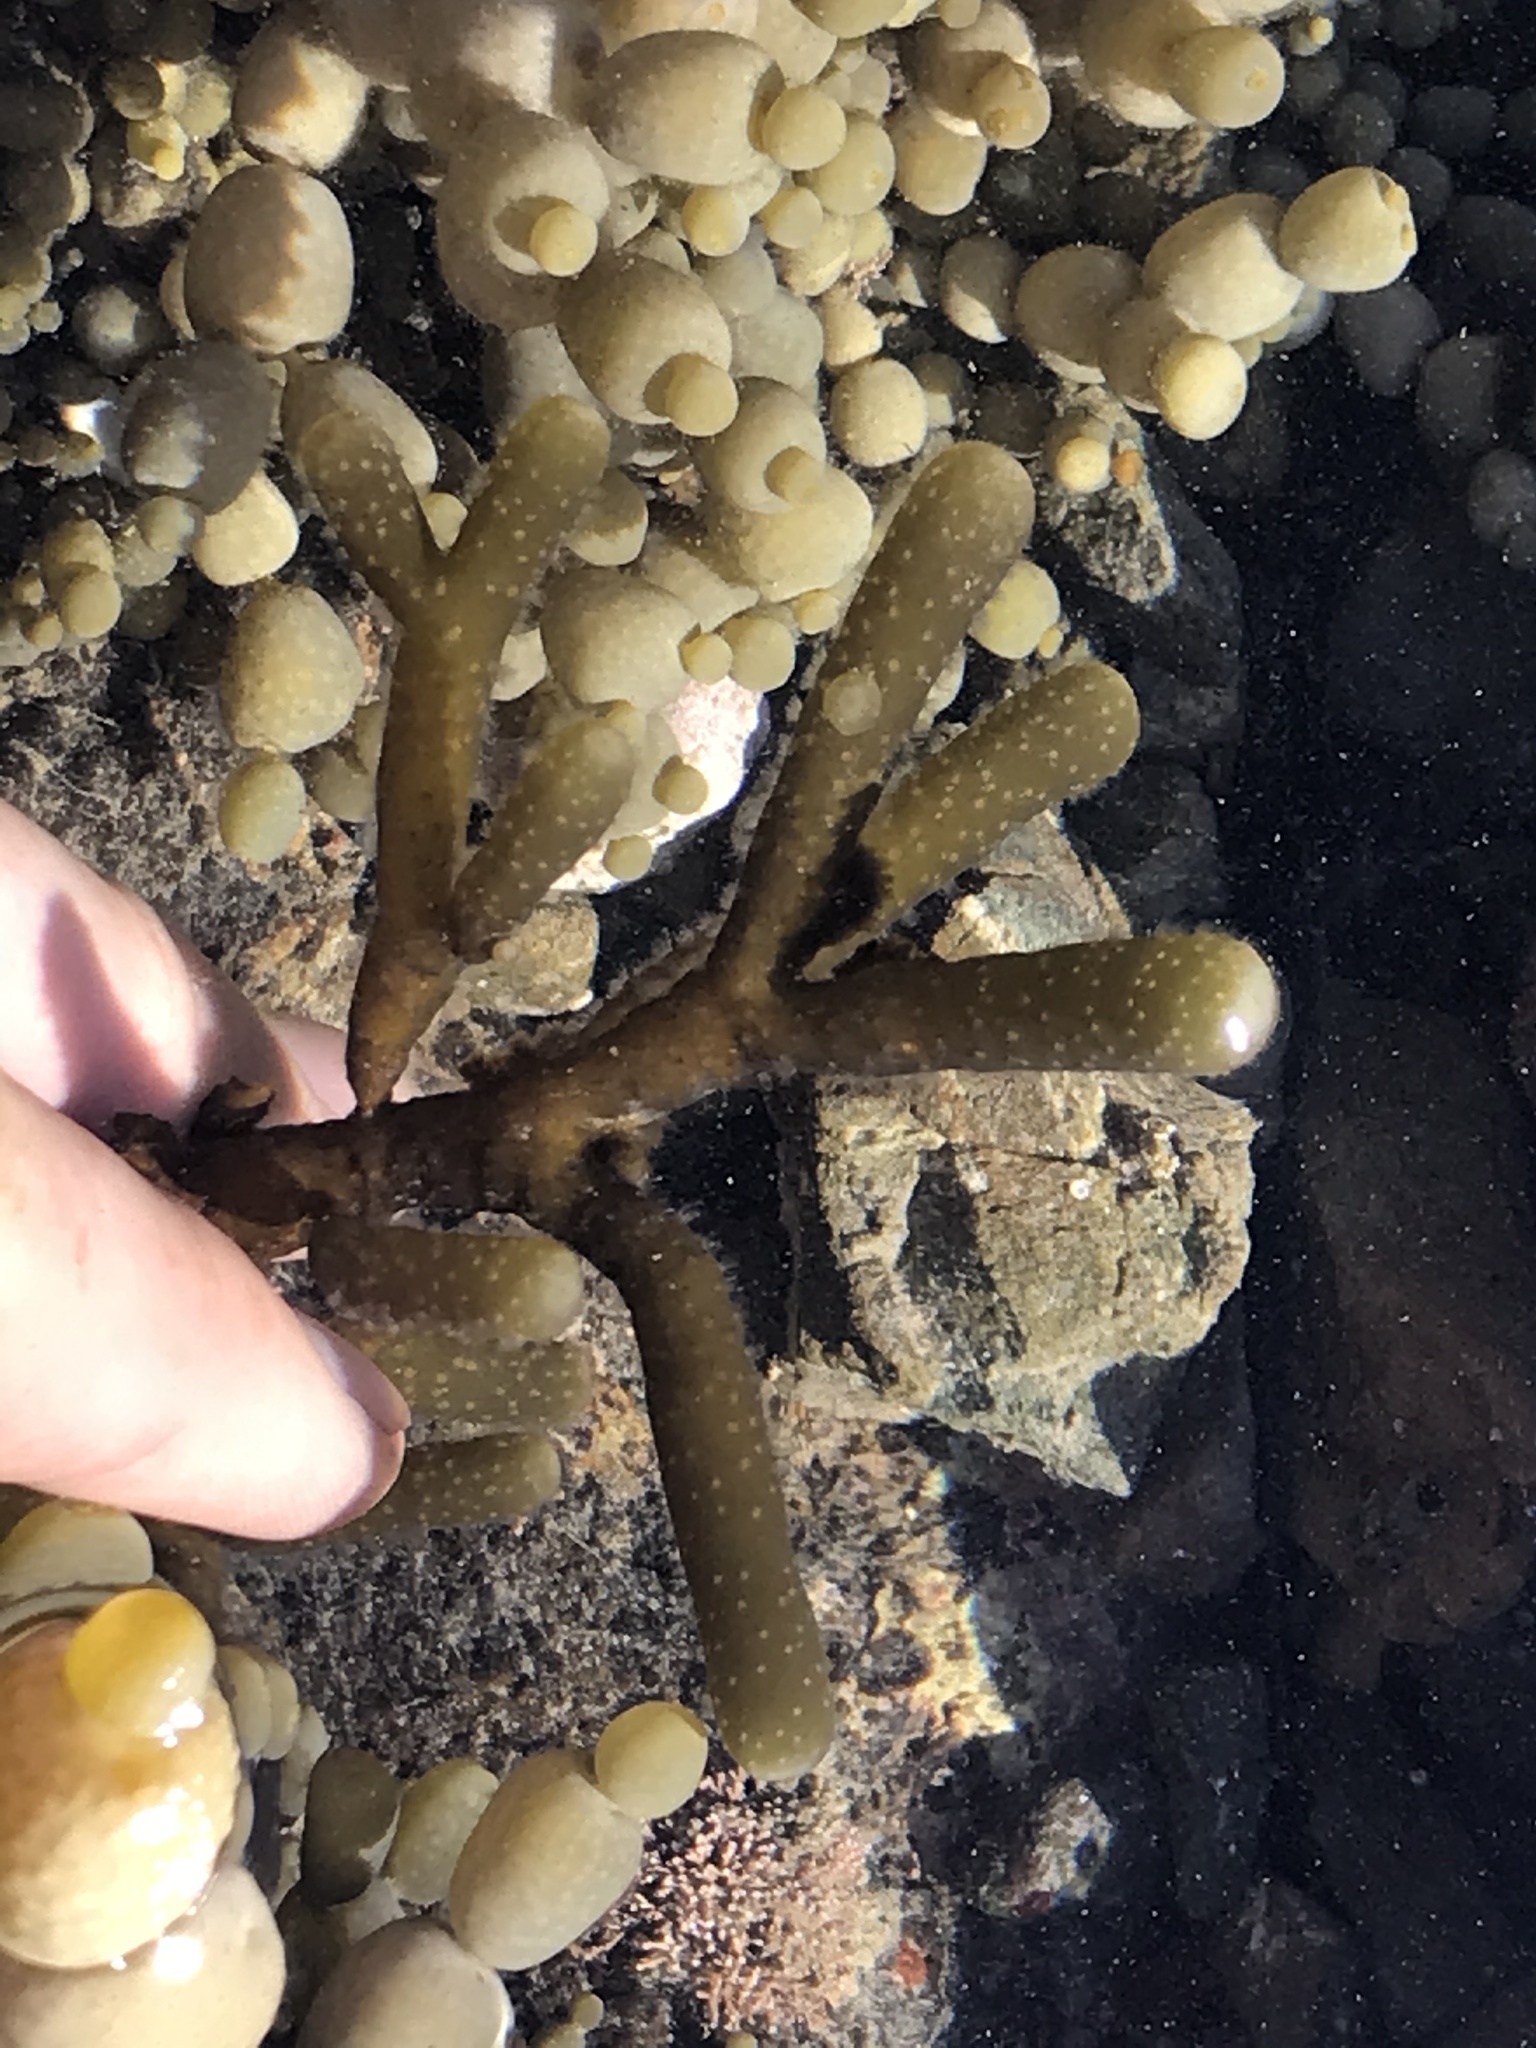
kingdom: Chromista
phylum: Ochrophyta
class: Phaeophyceae
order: Scytothamnales
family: Splachnidiaceae
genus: Splachnidium
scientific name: Splachnidium rugosum
